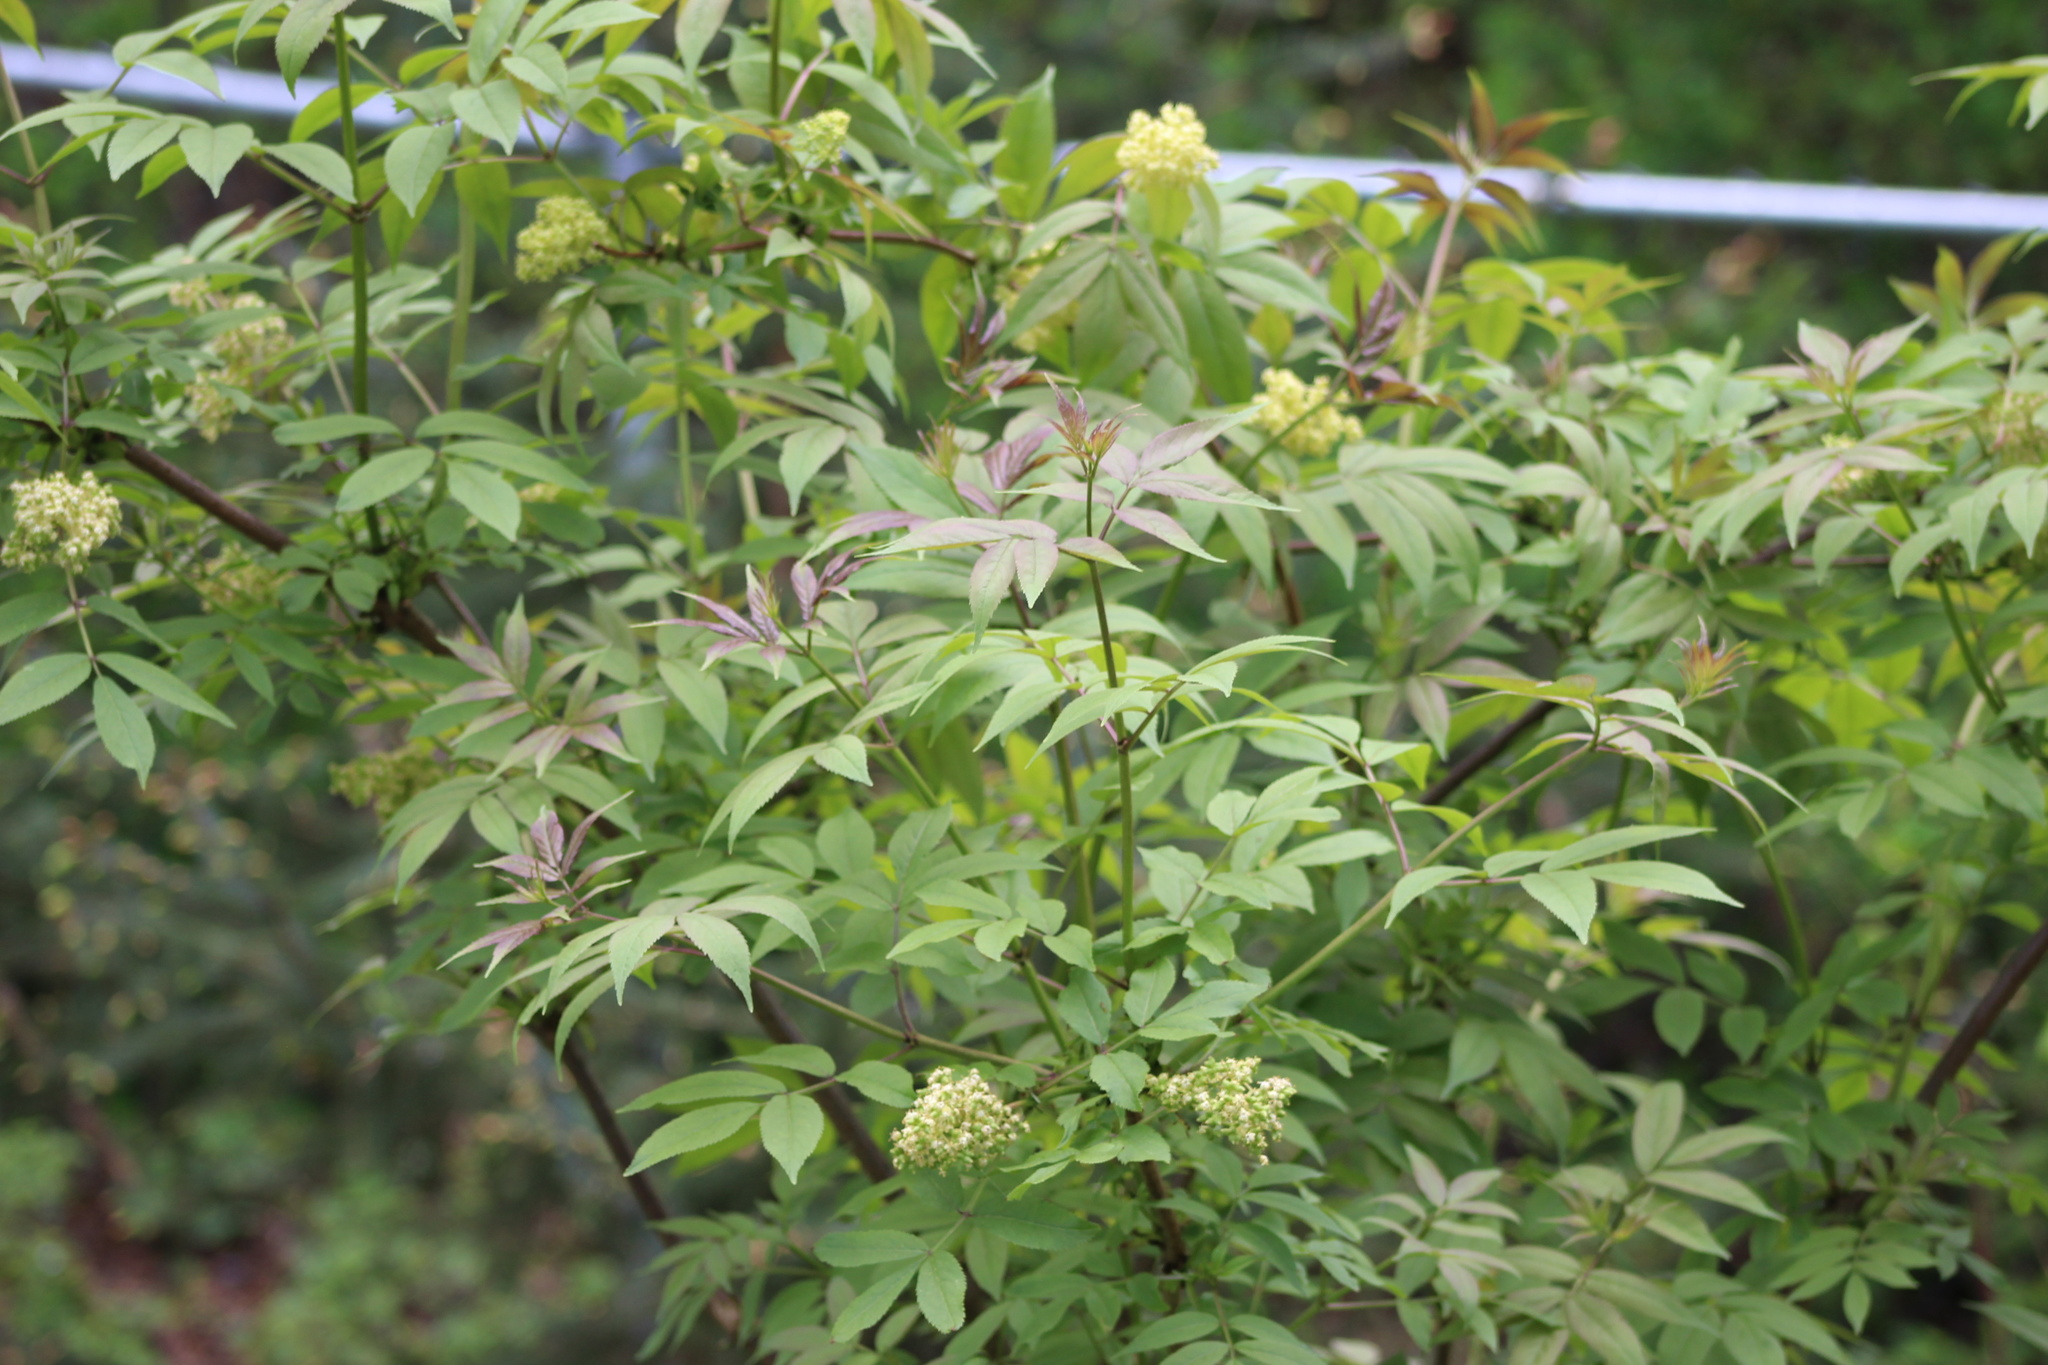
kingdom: Plantae
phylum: Tracheophyta
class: Magnoliopsida
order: Dipsacales
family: Viburnaceae
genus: Sambucus
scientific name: Sambucus racemosa
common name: Red-berried elder
